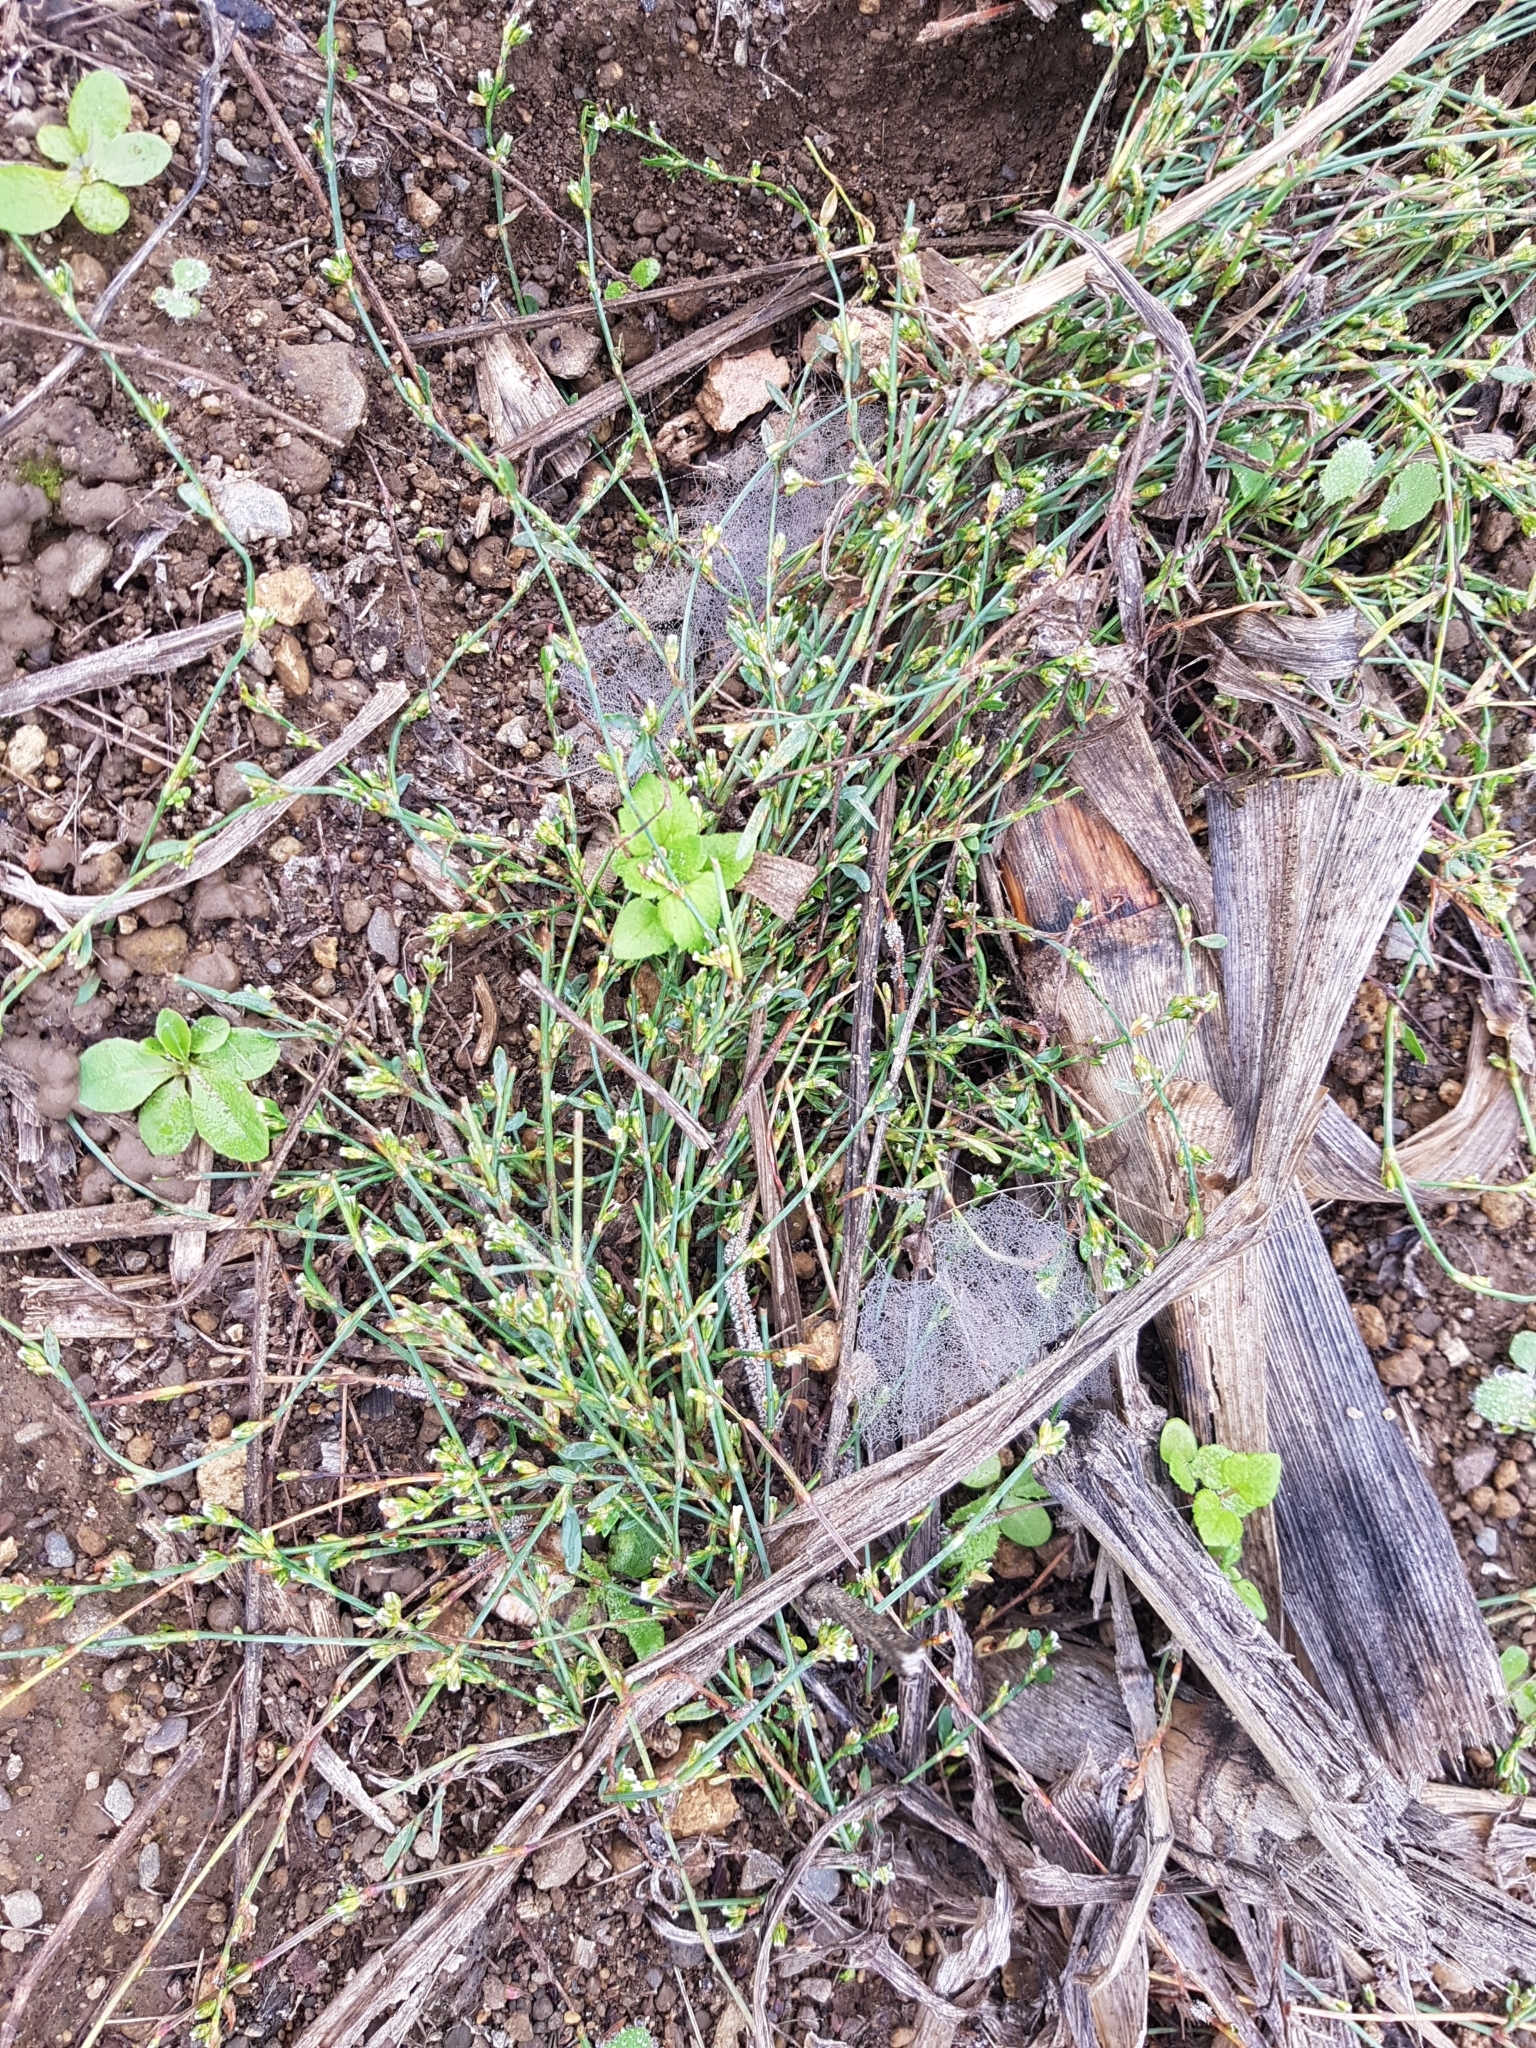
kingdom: Plantae
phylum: Tracheophyta
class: Magnoliopsida
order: Caryophyllales
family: Polygonaceae
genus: Polygonum
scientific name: Polygonum aviculare
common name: Prostrate knotweed
